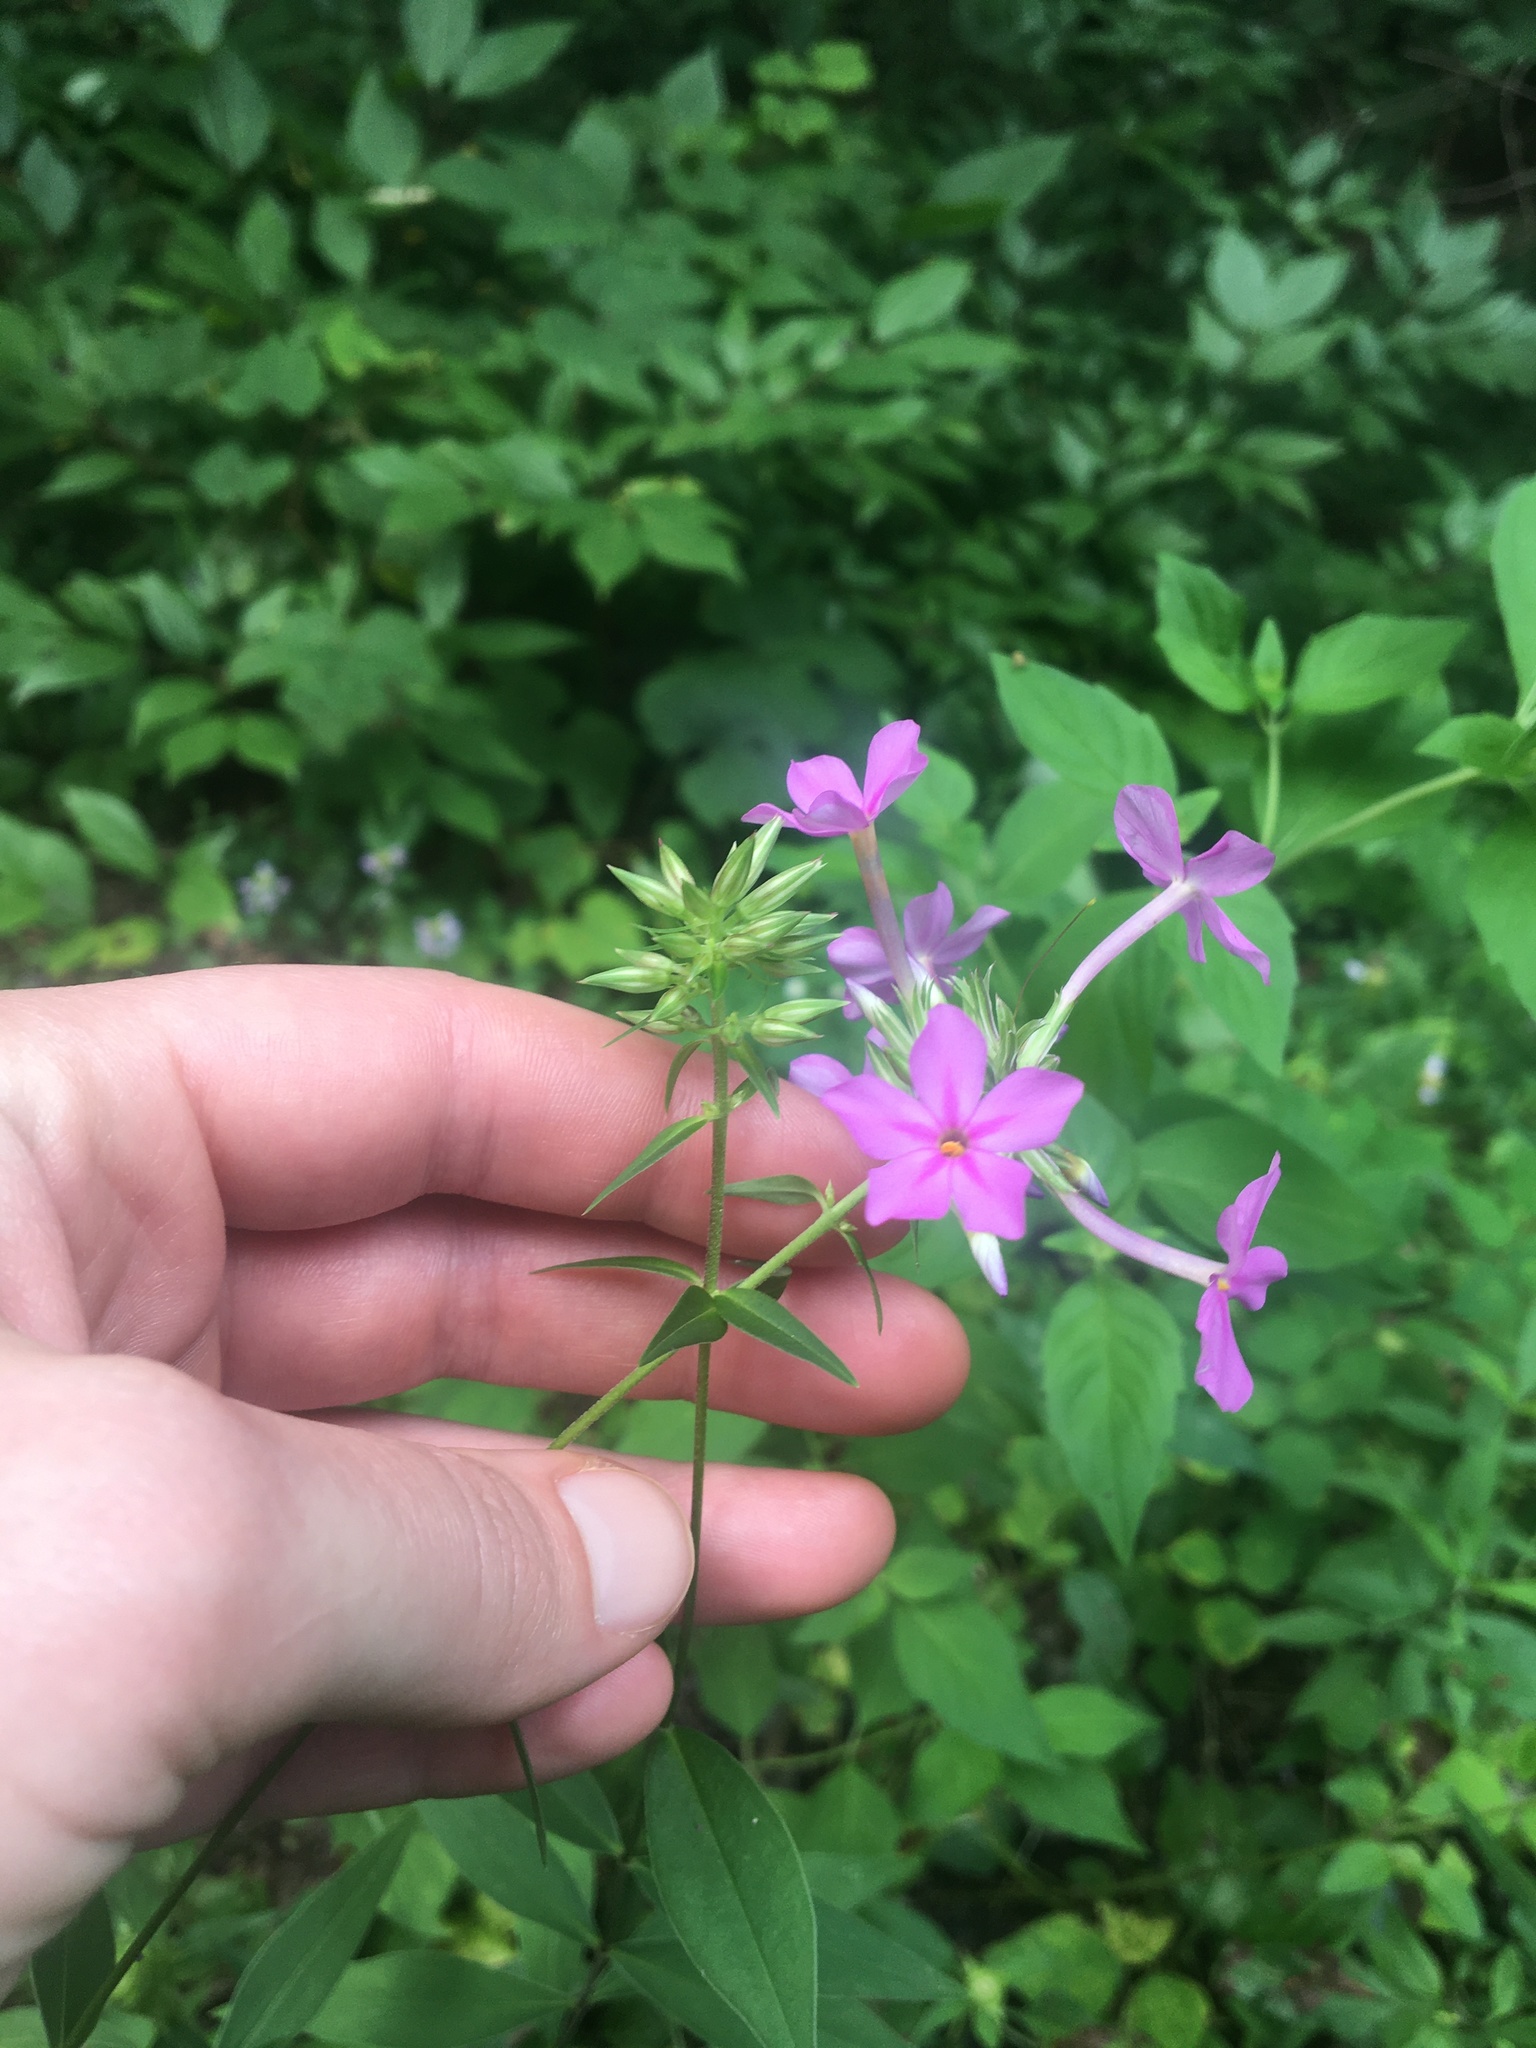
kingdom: Plantae
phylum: Tracheophyta
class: Magnoliopsida
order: Ericales
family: Polemoniaceae
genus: Phlox
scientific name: Phlox carolina
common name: Thick-leaf phlox
